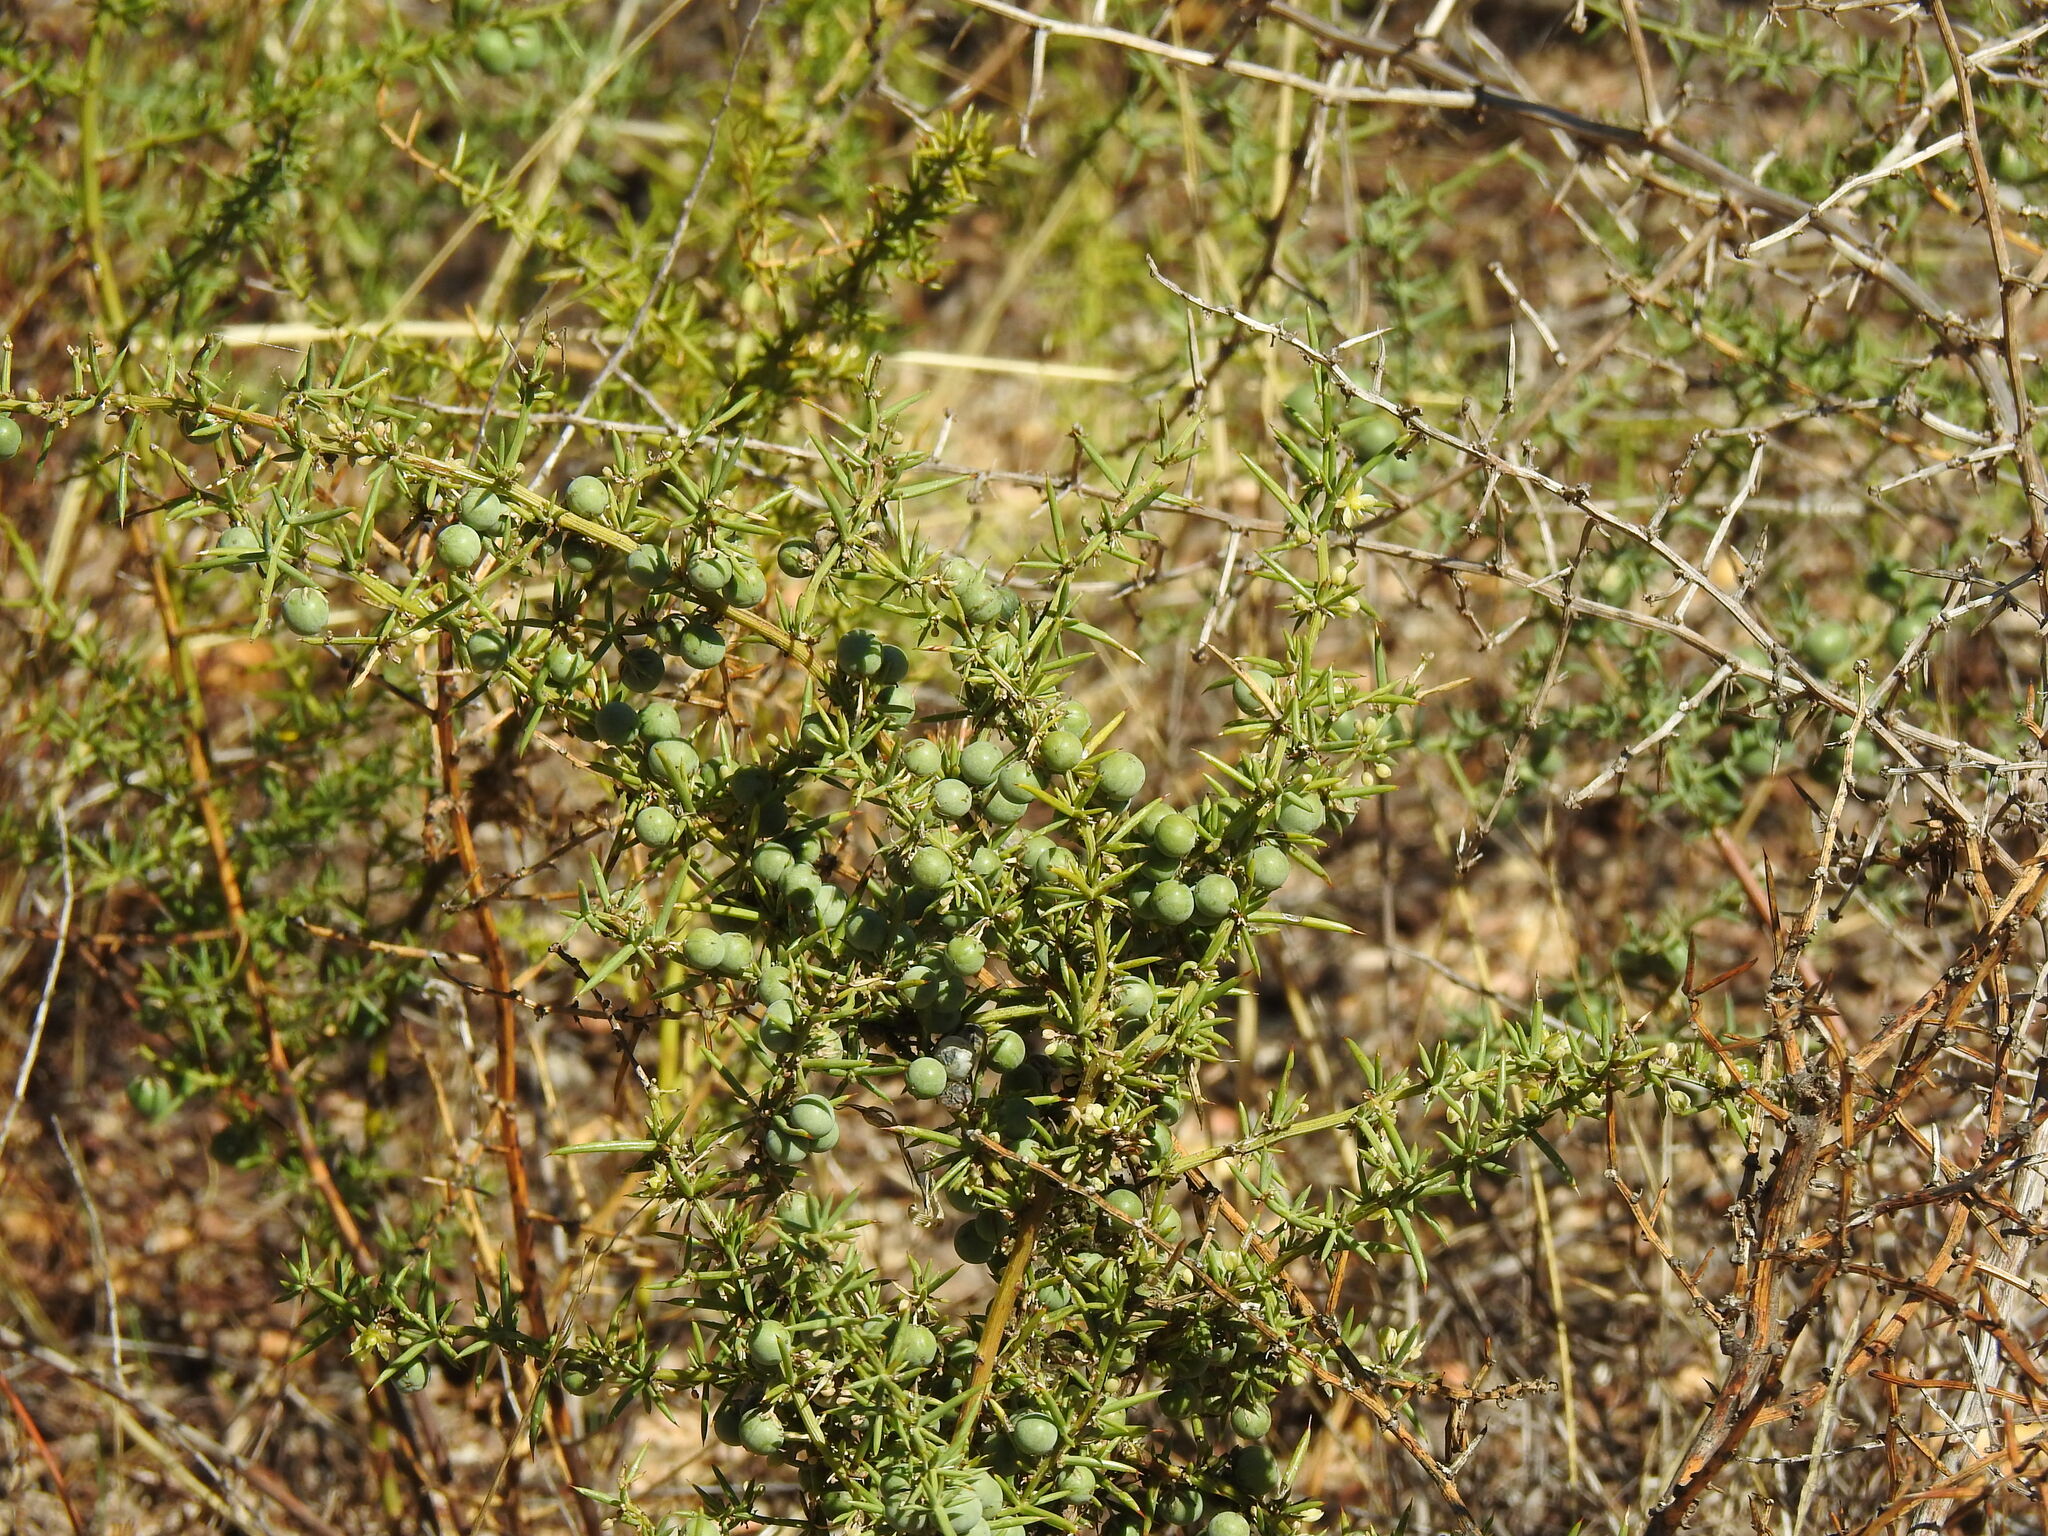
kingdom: Plantae
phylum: Tracheophyta
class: Liliopsida
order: Asparagales
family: Asparagaceae
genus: Asparagus
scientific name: Asparagus aphyllus
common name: Mediterranean asparagus
